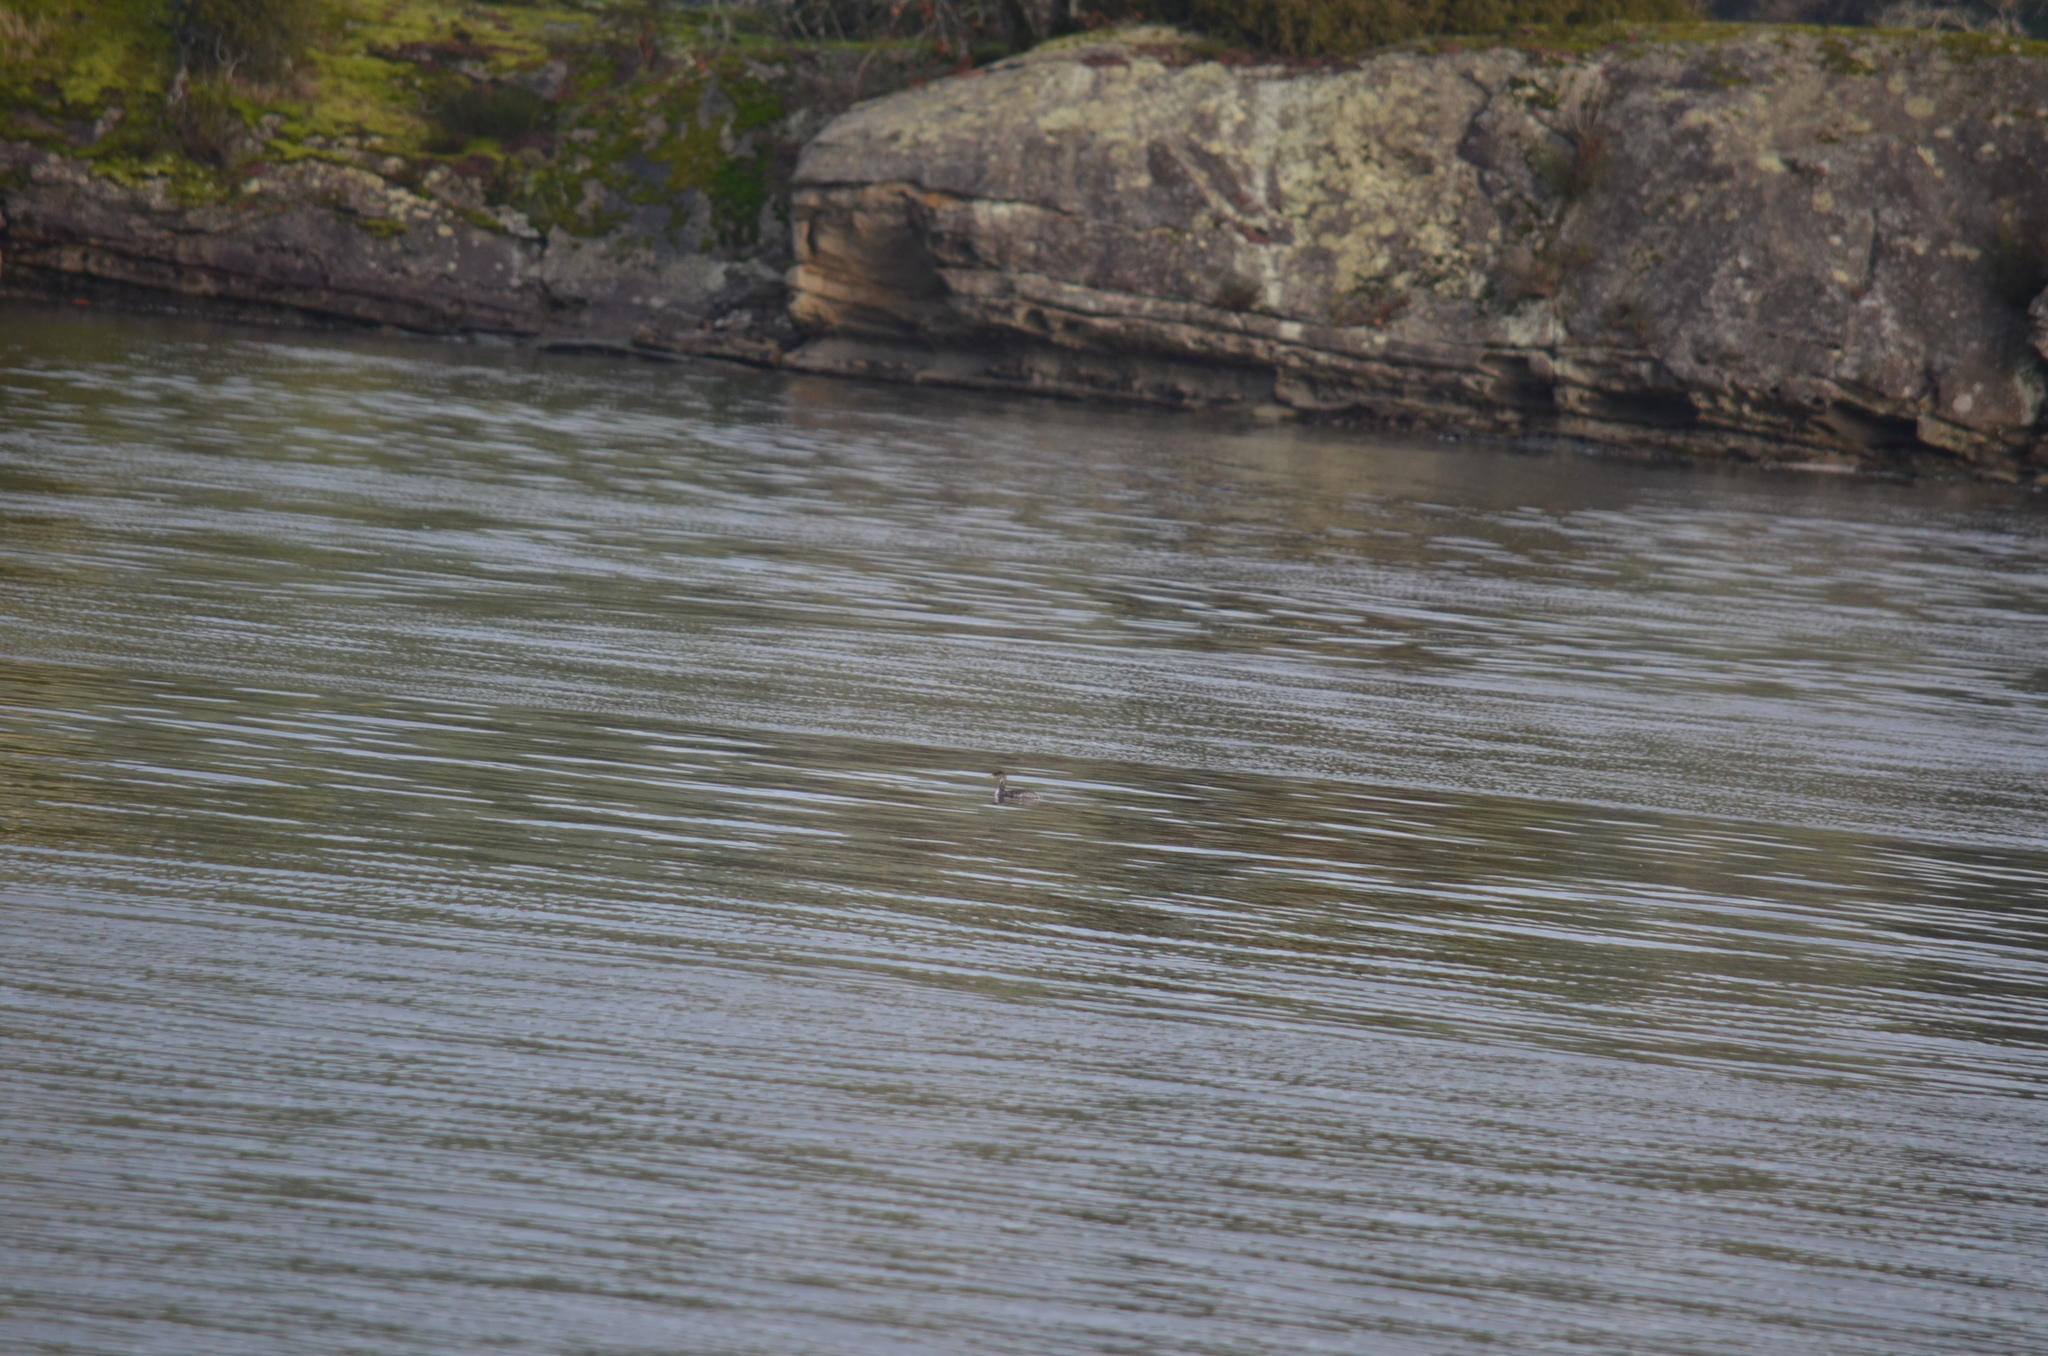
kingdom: Animalia
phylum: Chordata
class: Aves
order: Podicipediformes
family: Podicipedidae
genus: Podiceps
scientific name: Podiceps grisegena
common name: Red-necked grebe
